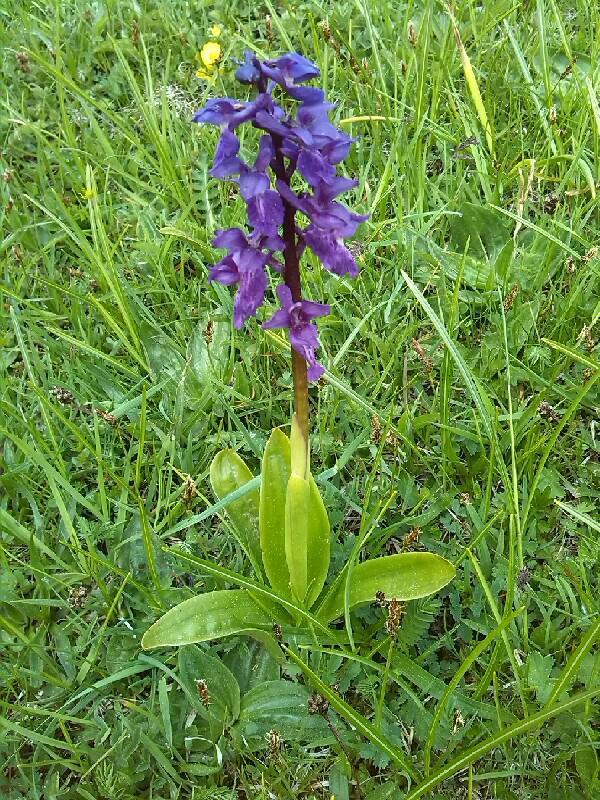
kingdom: Plantae
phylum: Tracheophyta
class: Liliopsida
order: Asparagales
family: Orchidaceae
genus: Orchis
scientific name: Orchis mascula
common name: Early-purple orchid
